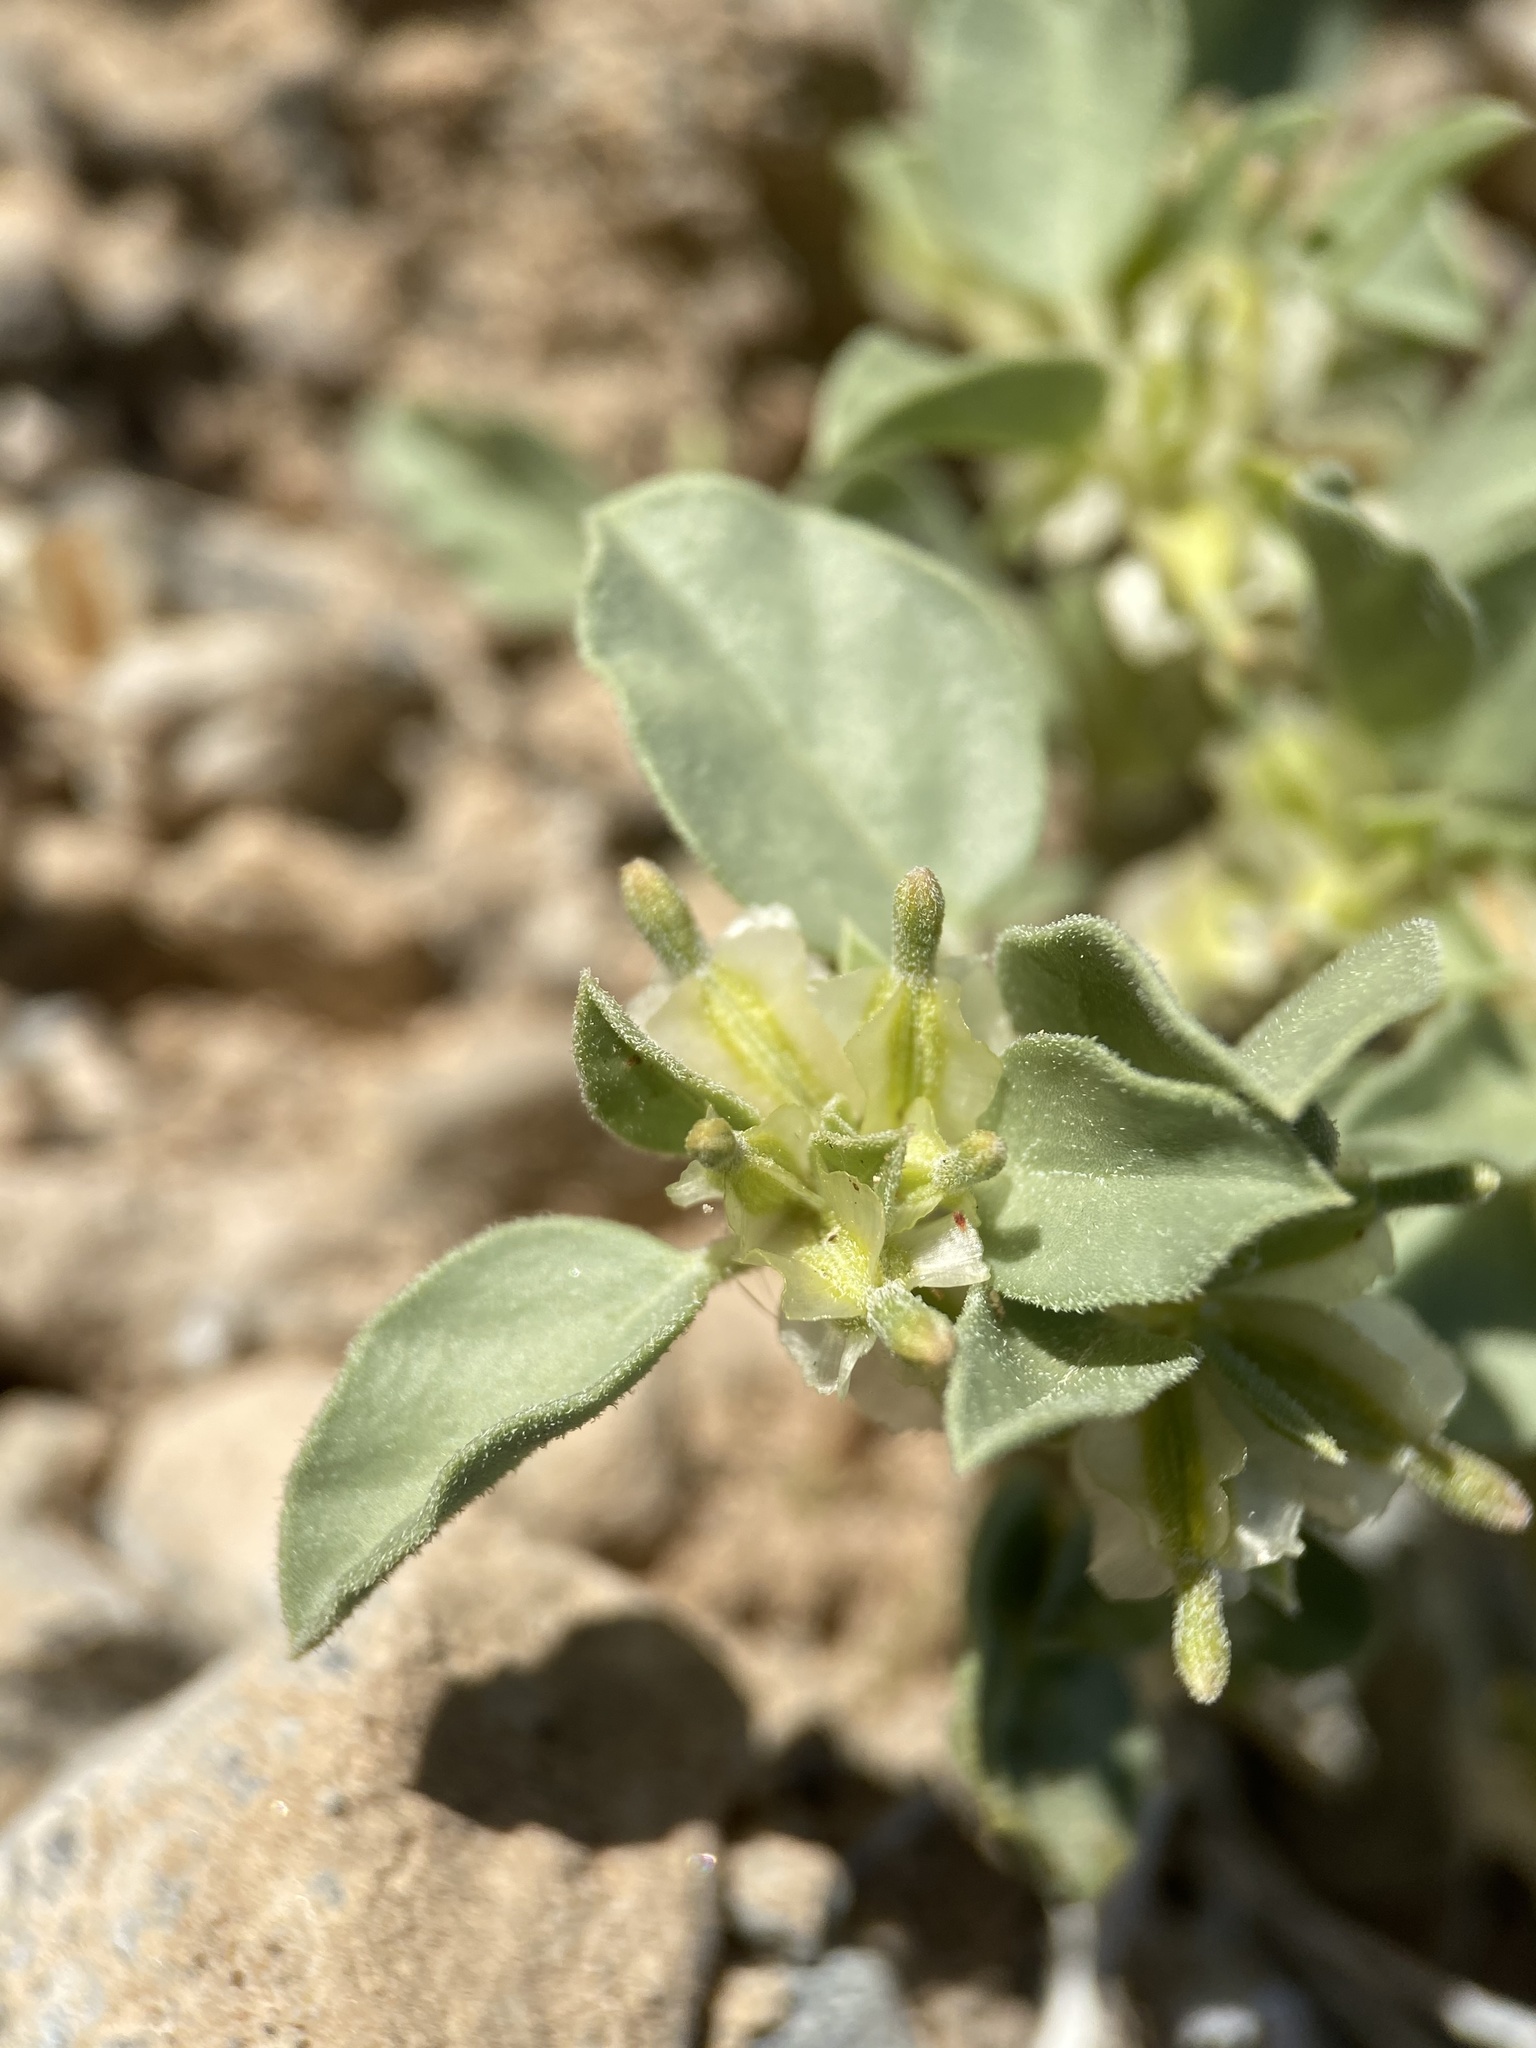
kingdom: Plantae
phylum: Tracheophyta
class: Magnoliopsida
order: Caryophyllales
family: Nyctaginaceae
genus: Acleisanthes
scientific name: Acleisanthes nevadensis
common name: Desert moonpod
